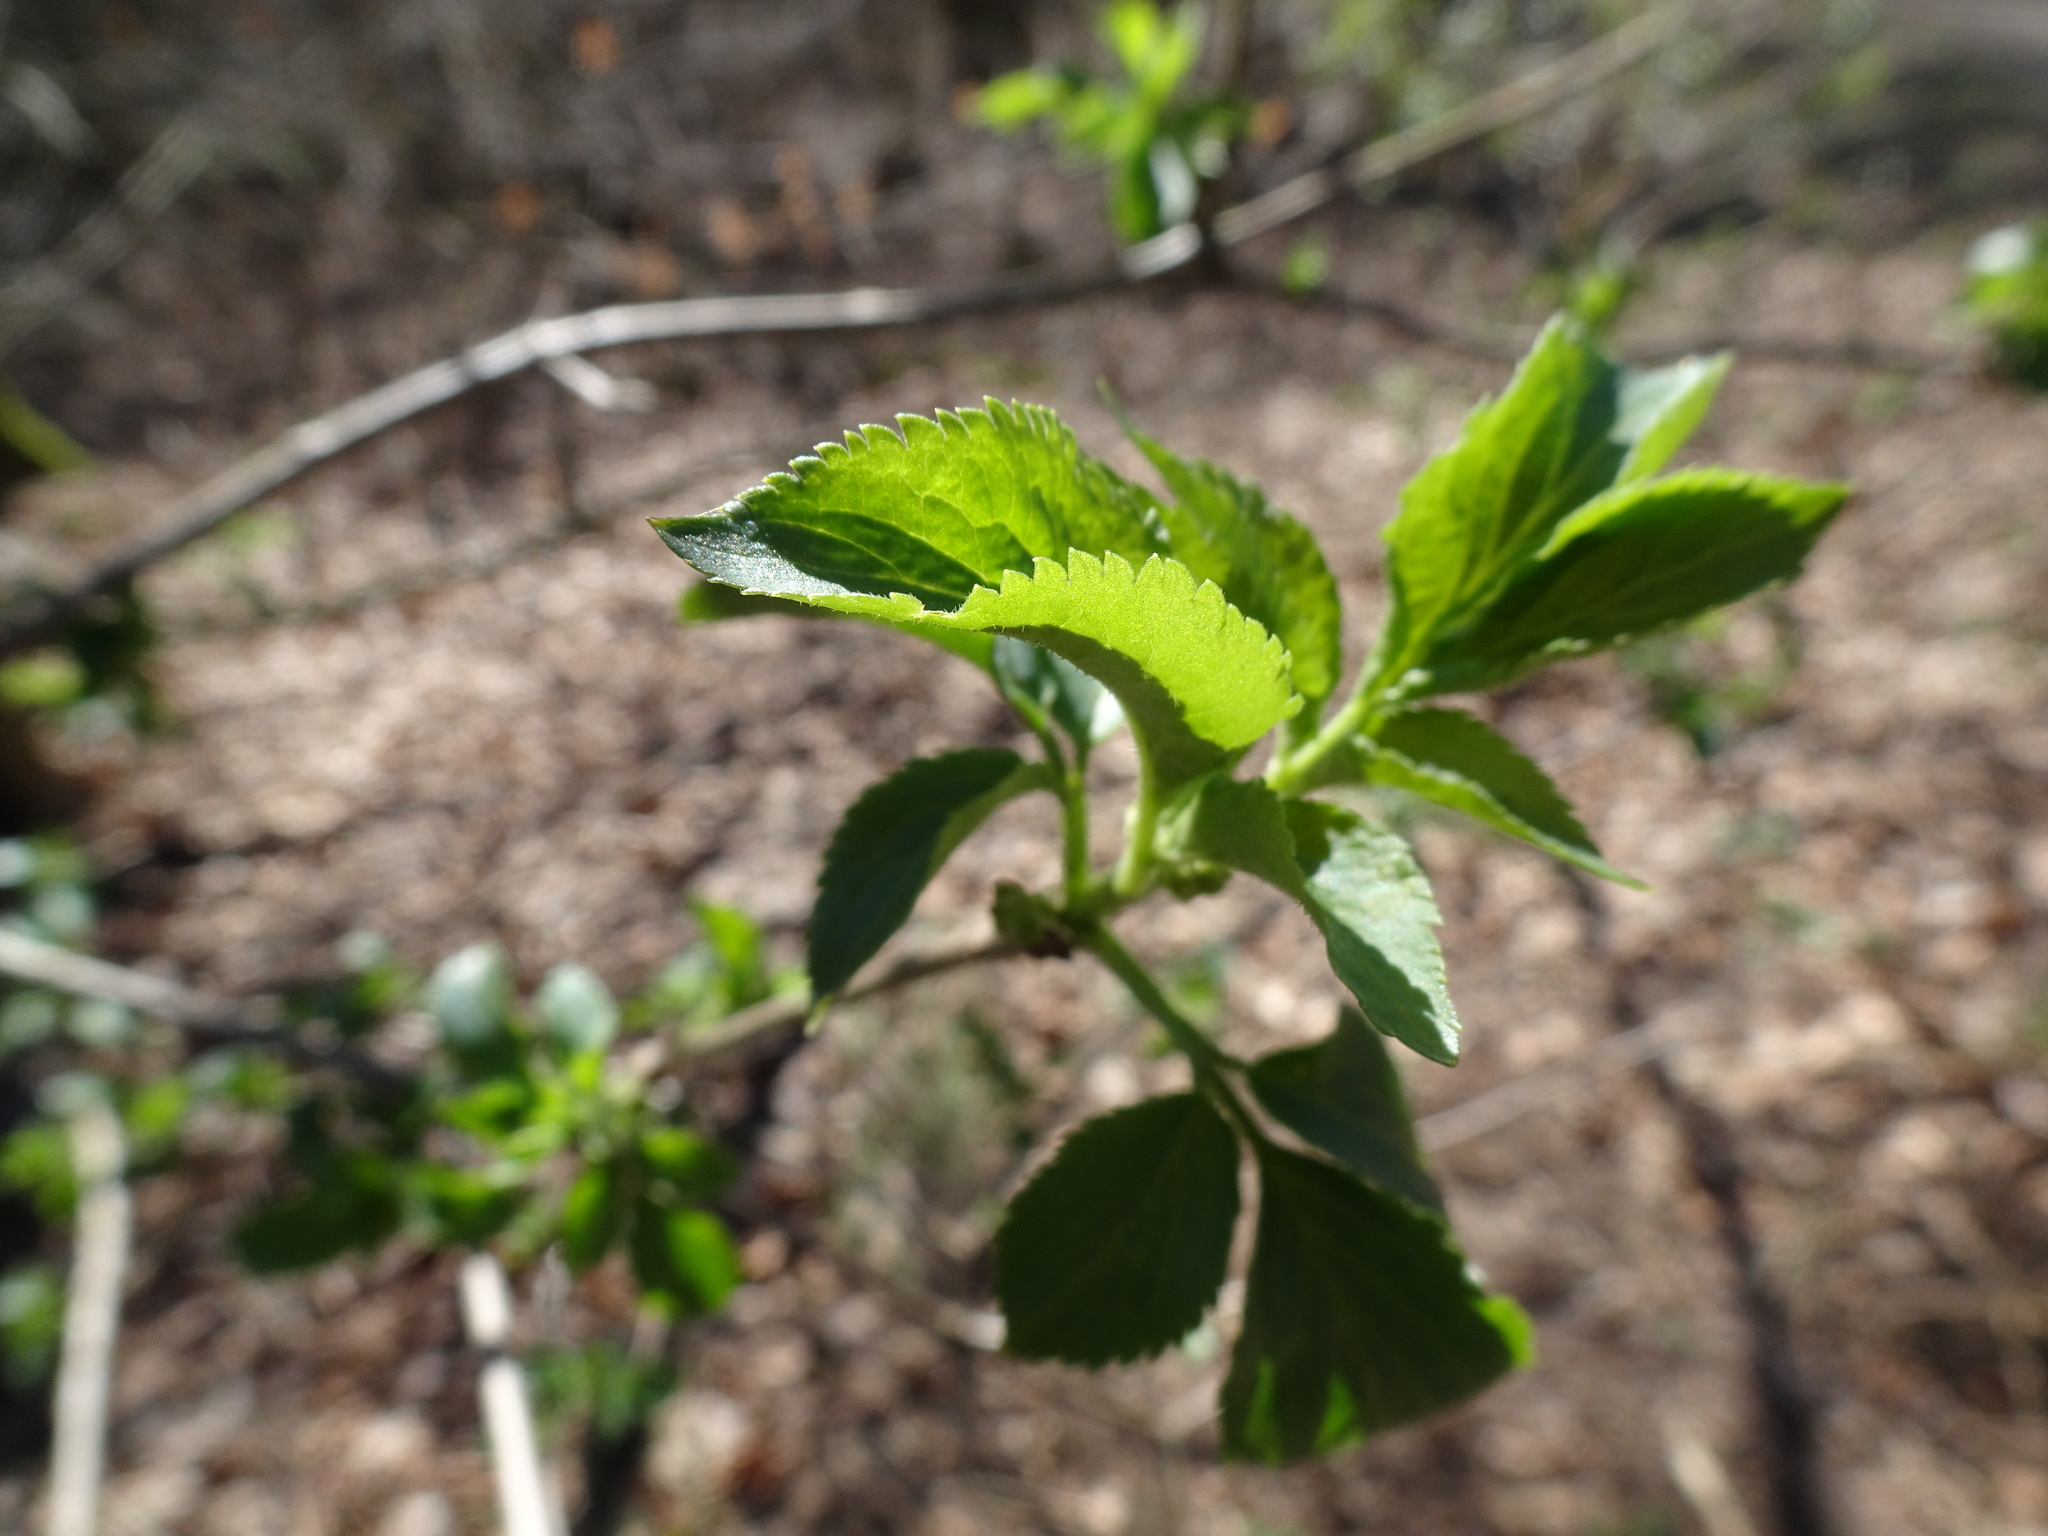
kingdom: Plantae
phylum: Tracheophyta
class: Magnoliopsida
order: Dipsacales
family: Viburnaceae
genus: Sambucus
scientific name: Sambucus nigra
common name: Elder
